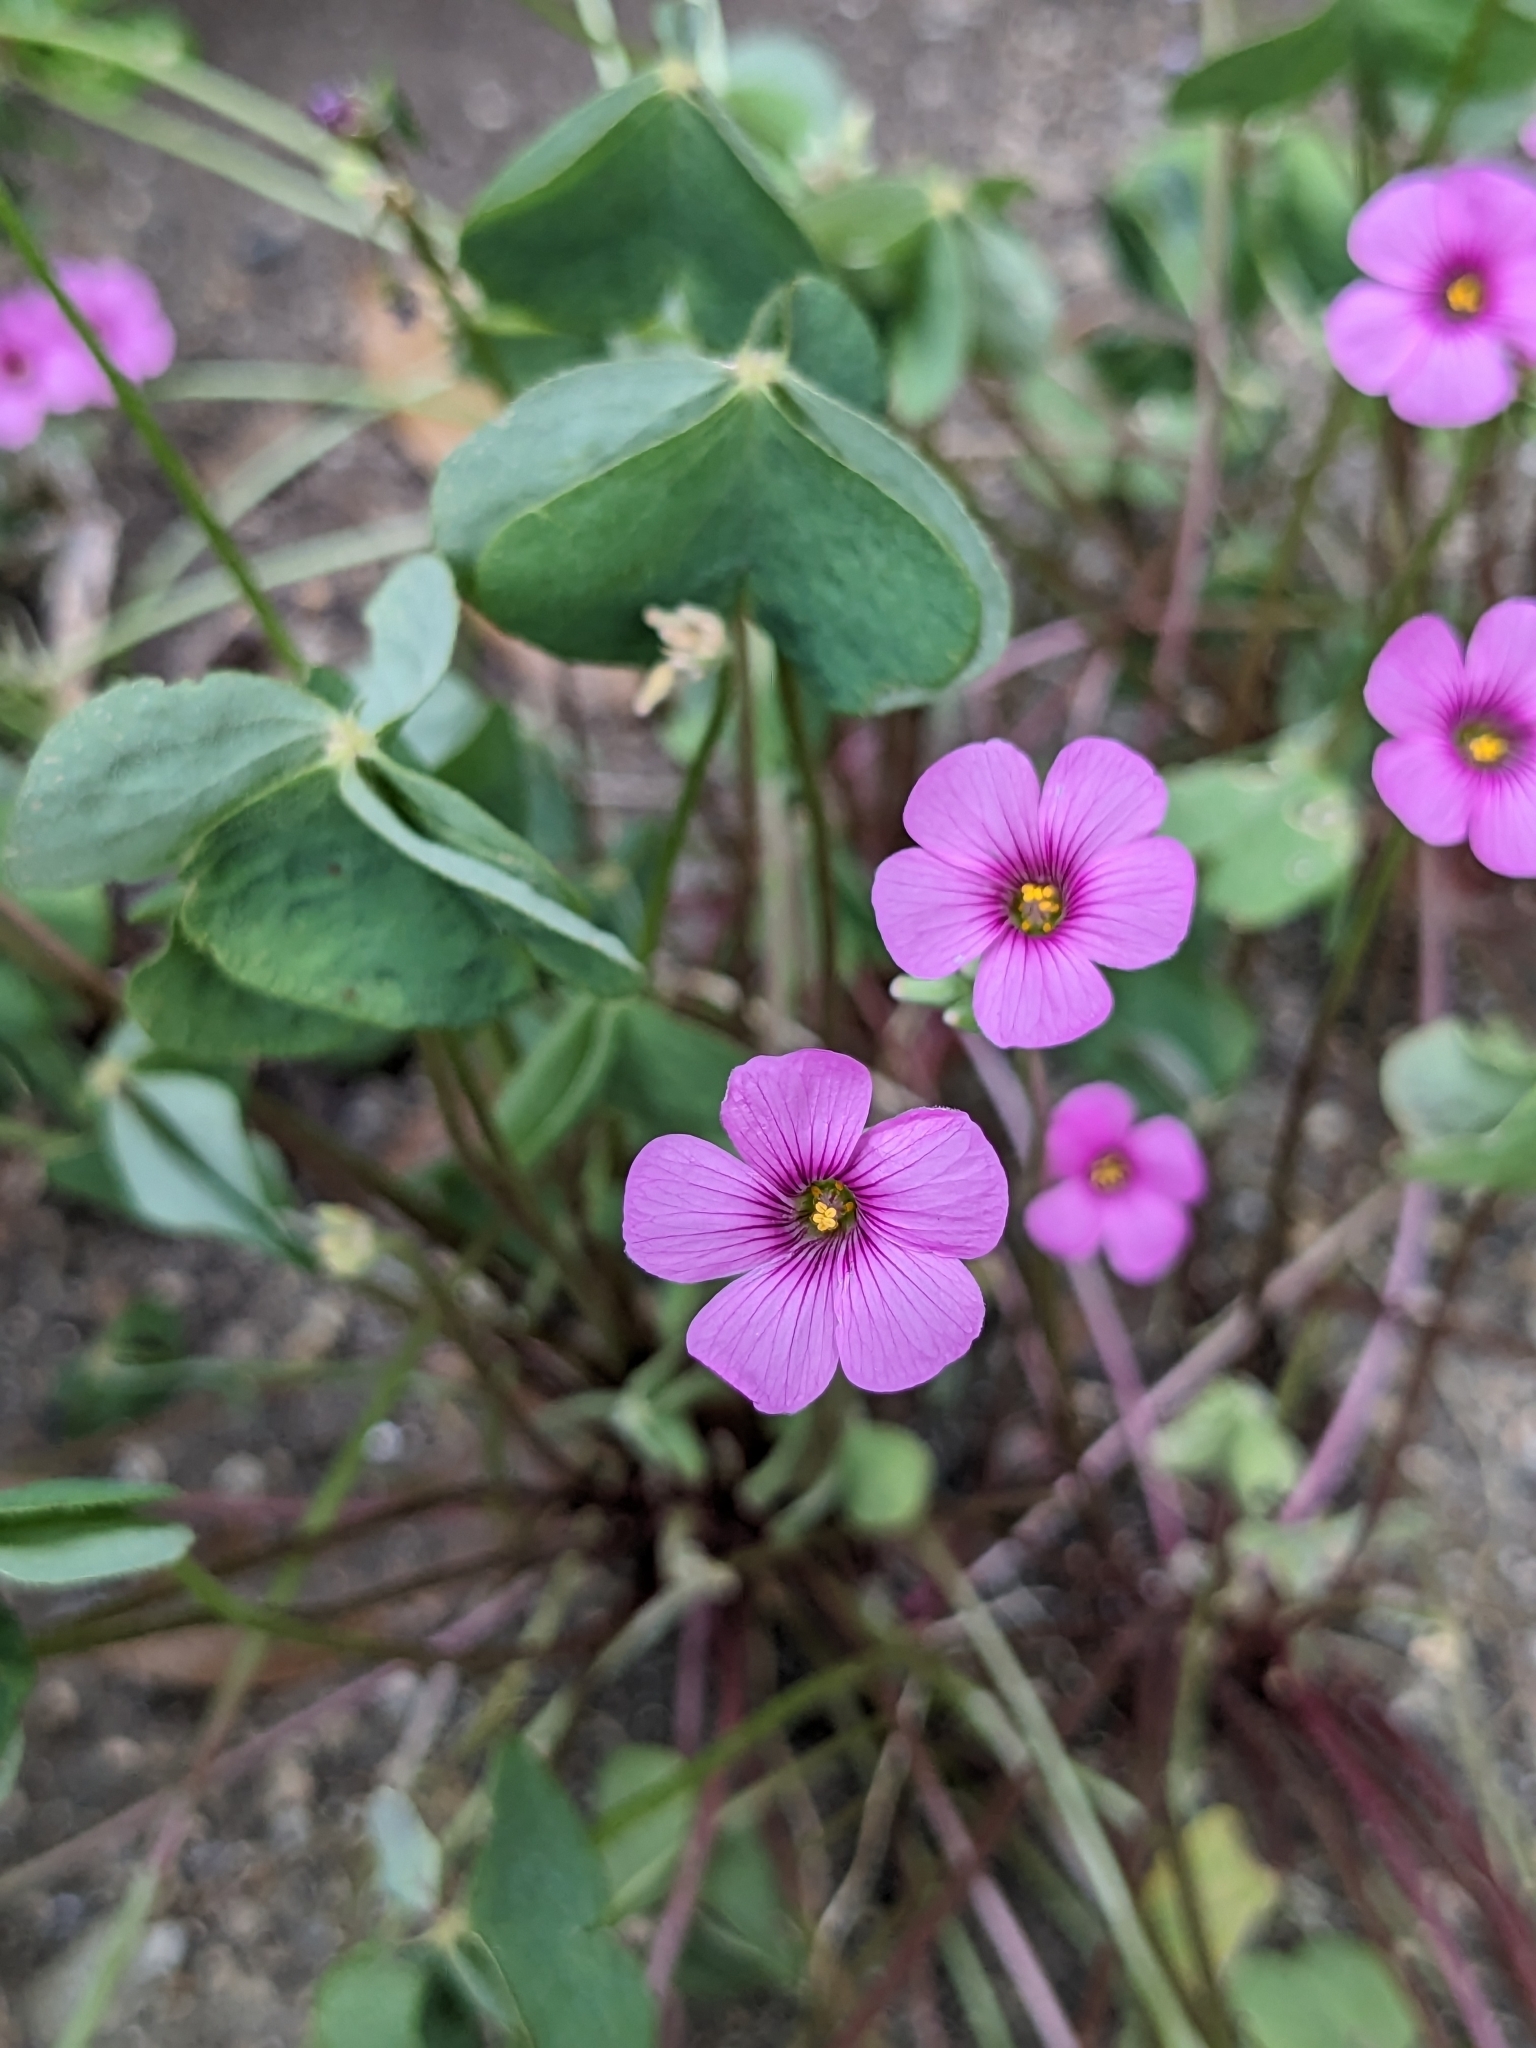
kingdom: Plantae
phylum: Tracheophyta
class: Magnoliopsida
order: Oxalidales
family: Oxalidaceae
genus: Oxalis
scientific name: Oxalis articulata
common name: Pink-sorrel
